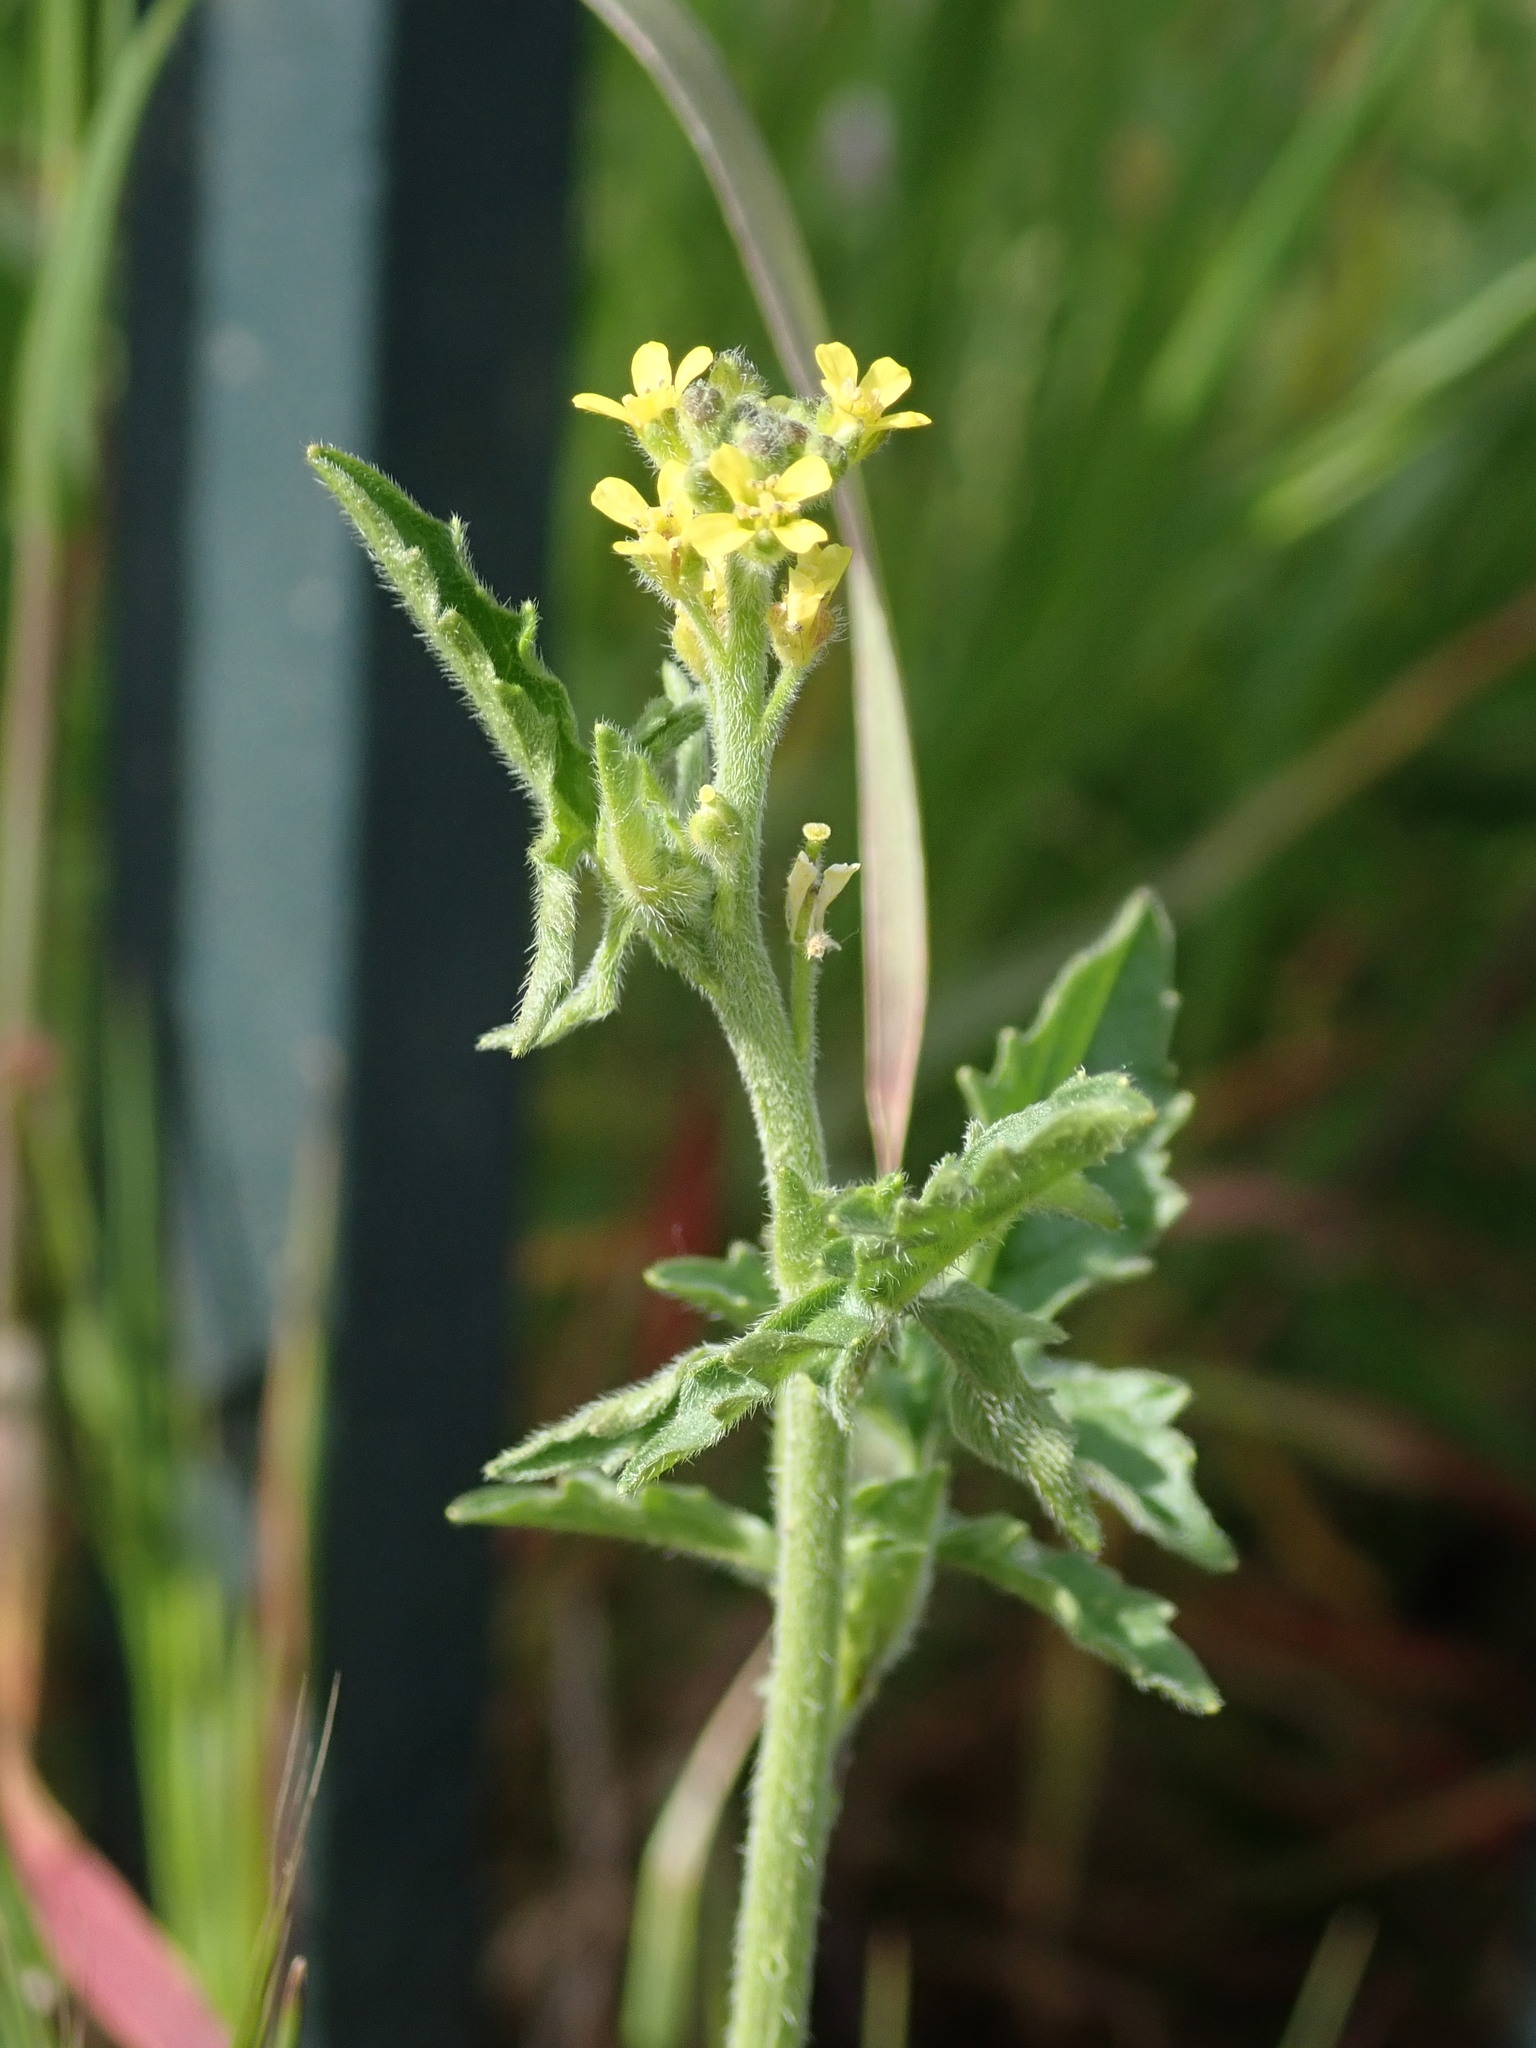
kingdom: Plantae
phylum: Tracheophyta
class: Magnoliopsida
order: Brassicales
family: Brassicaceae
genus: Sisymbrium
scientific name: Sisymbrium officinale
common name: Hedge mustard
